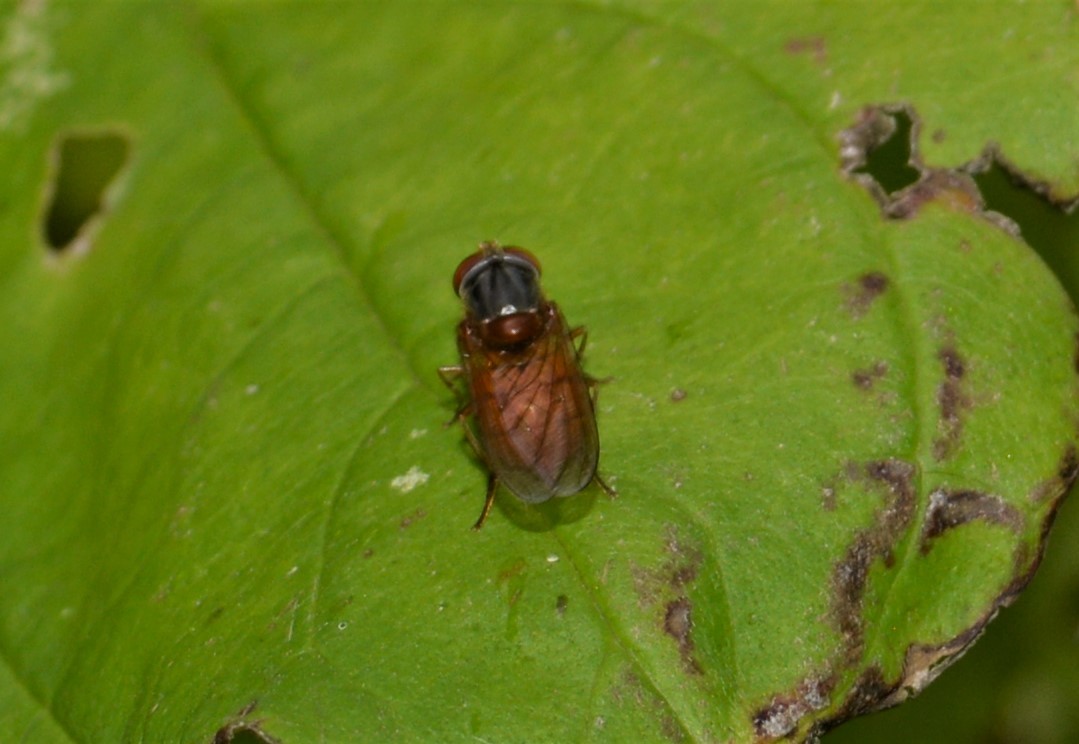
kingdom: Animalia
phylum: Arthropoda
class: Insecta
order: Diptera
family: Syrphidae
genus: Rhingia
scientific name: Rhingia campestris
